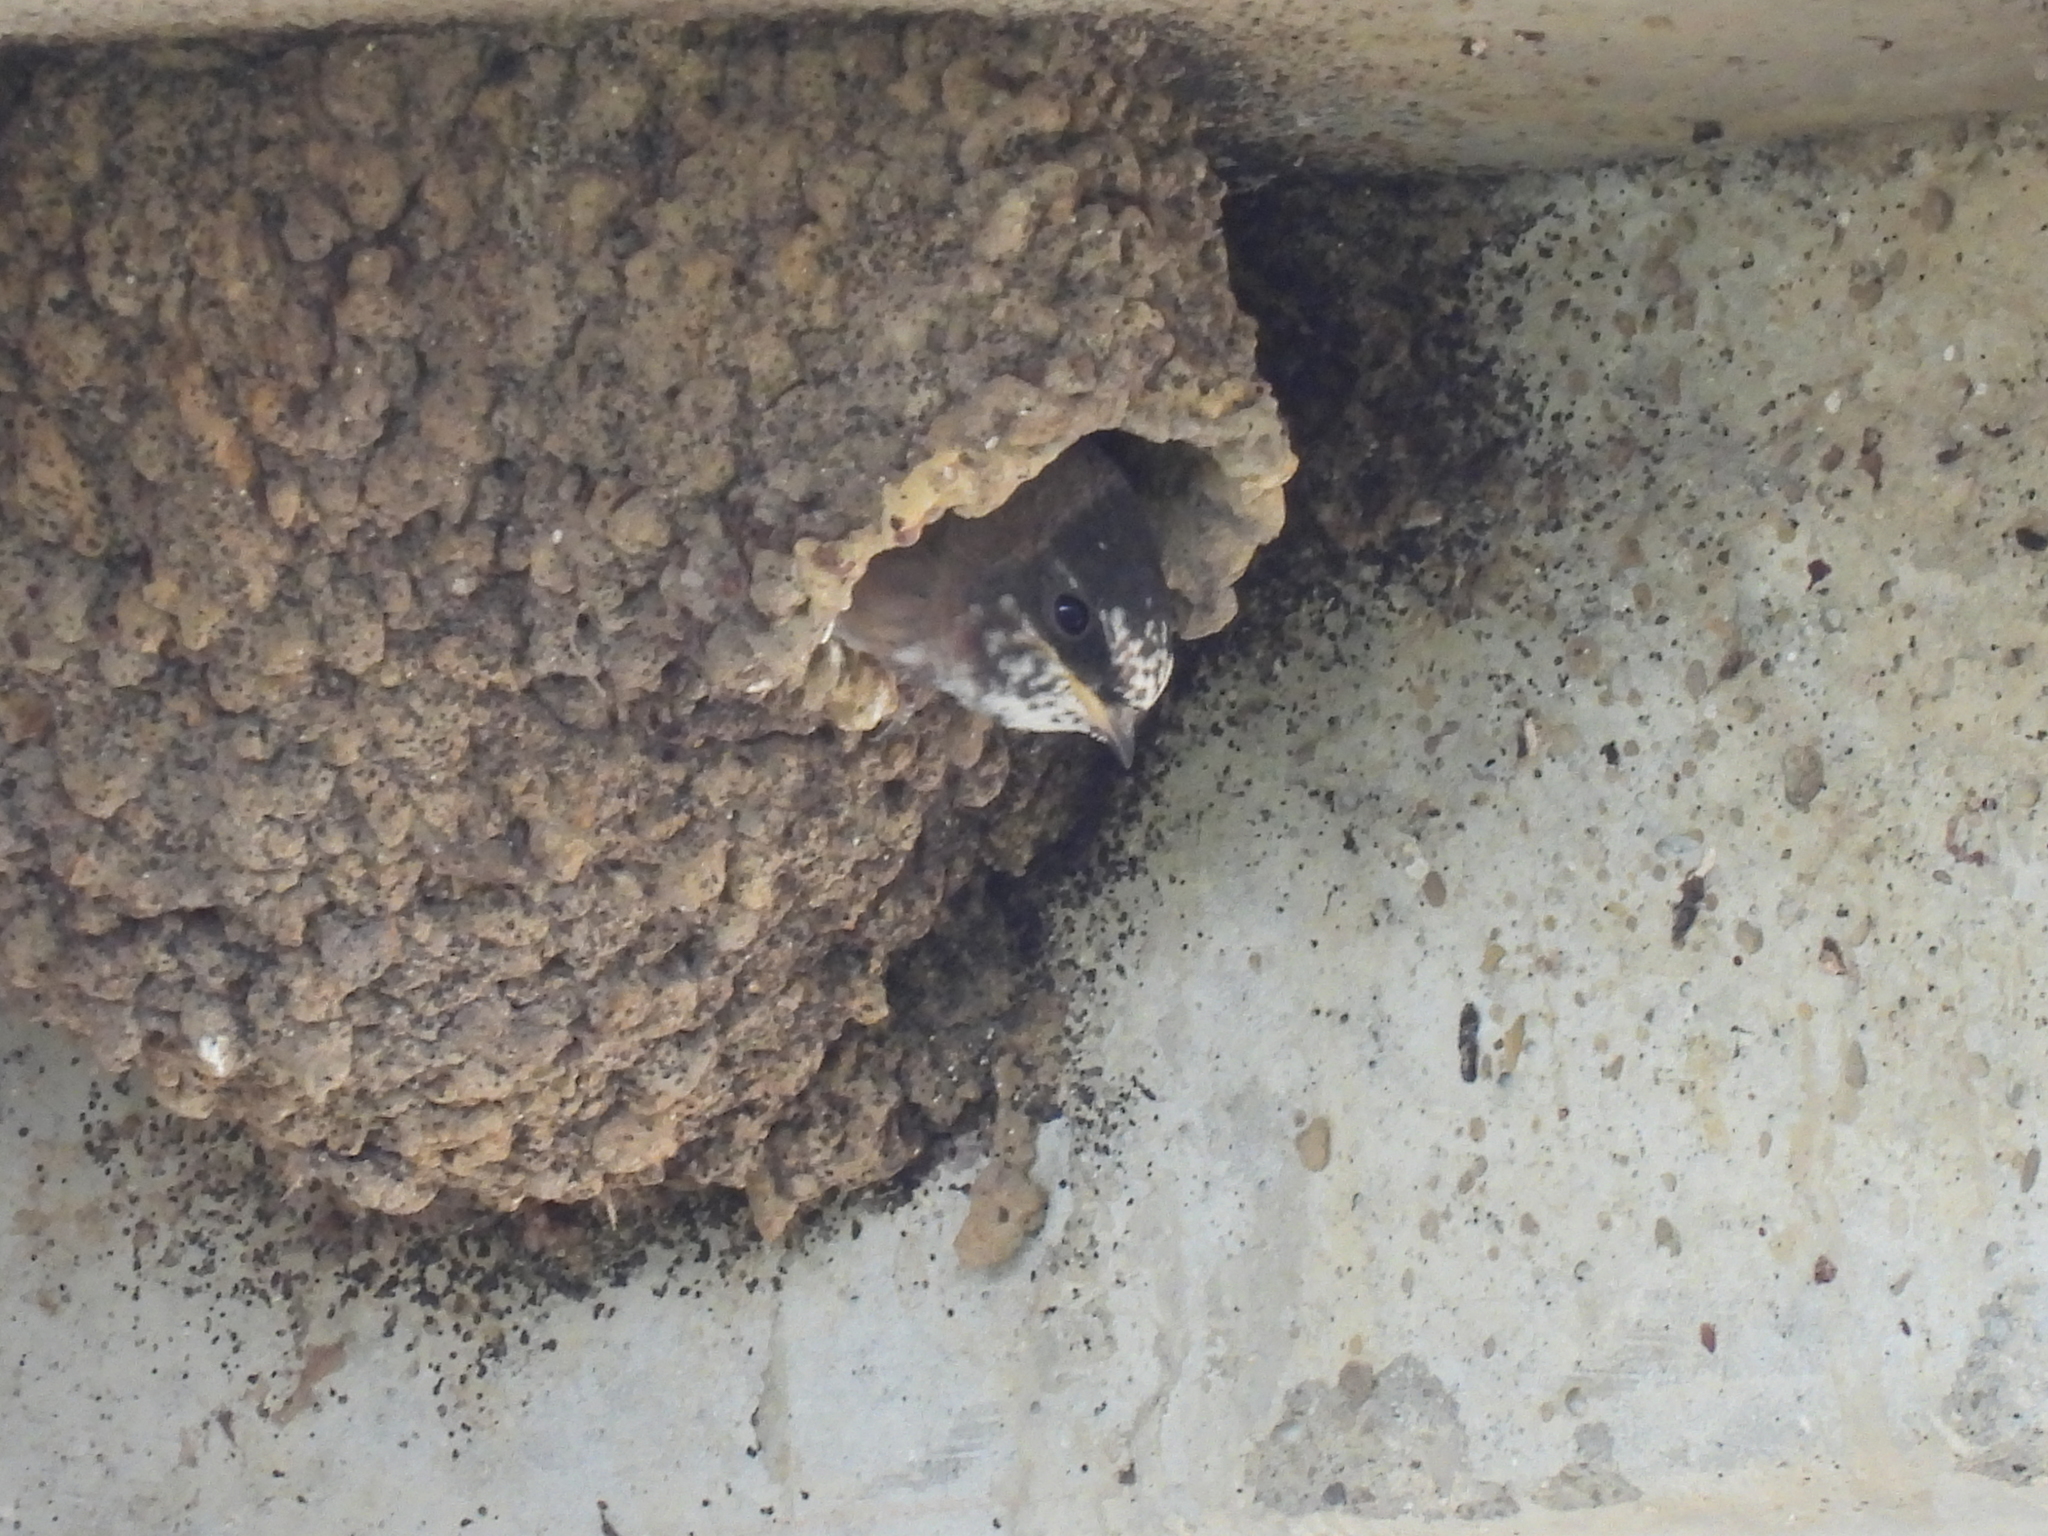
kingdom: Animalia
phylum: Chordata
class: Aves
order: Passeriformes
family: Hirundinidae
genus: Petrochelidon
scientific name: Petrochelidon pyrrhonota
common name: American cliff swallow
